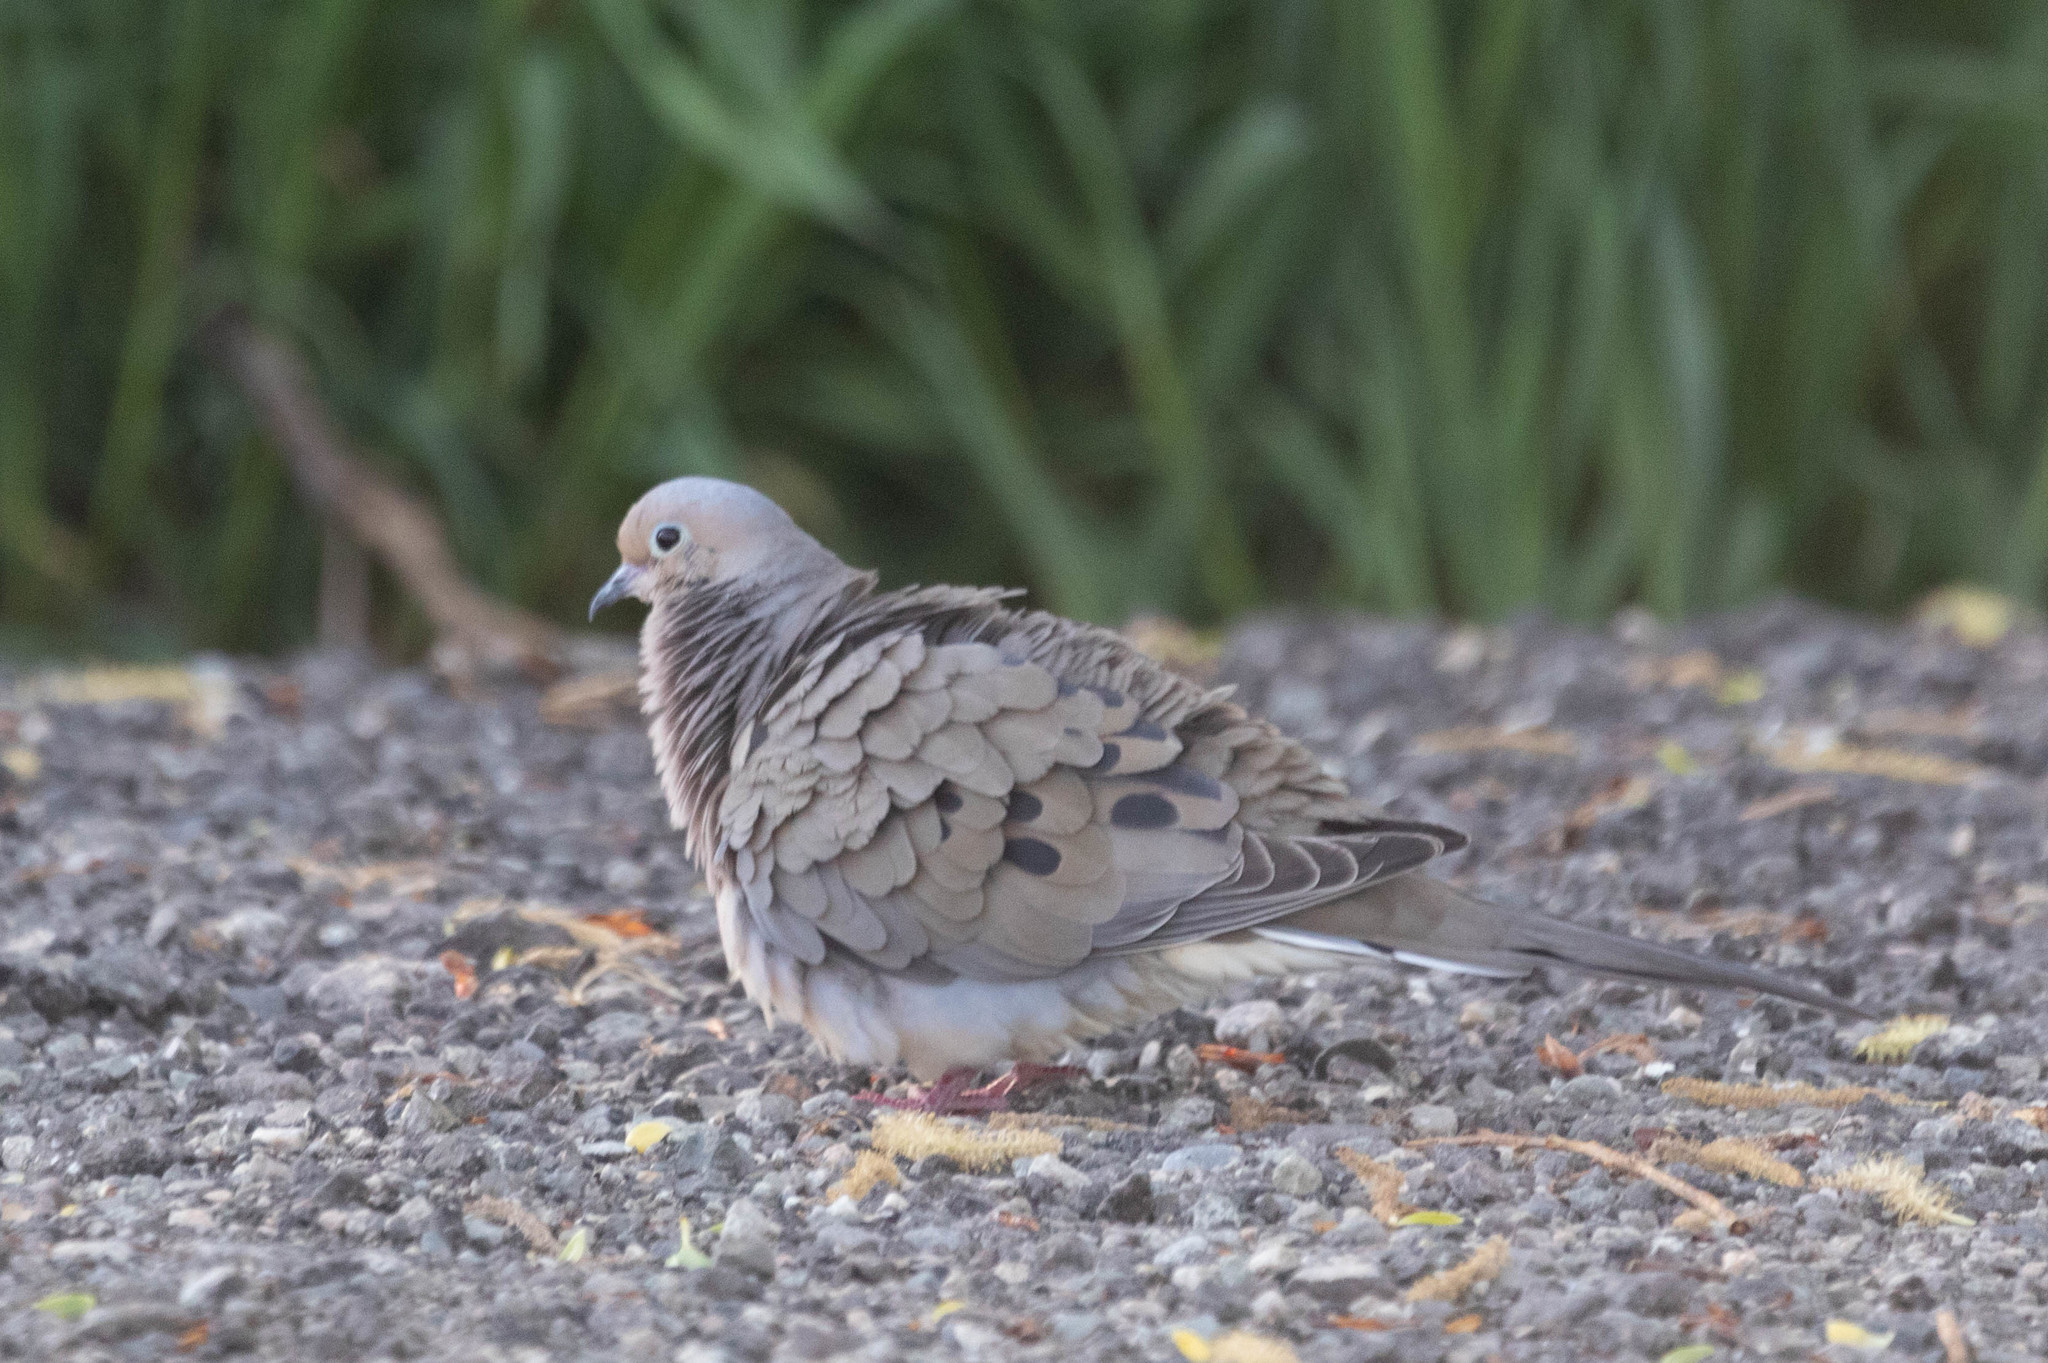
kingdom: Animalia
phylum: Chordata
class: Aves
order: Columbiformes
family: Columbidae
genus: Zenaida
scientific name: Zenaida macroura
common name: Mourning dove
